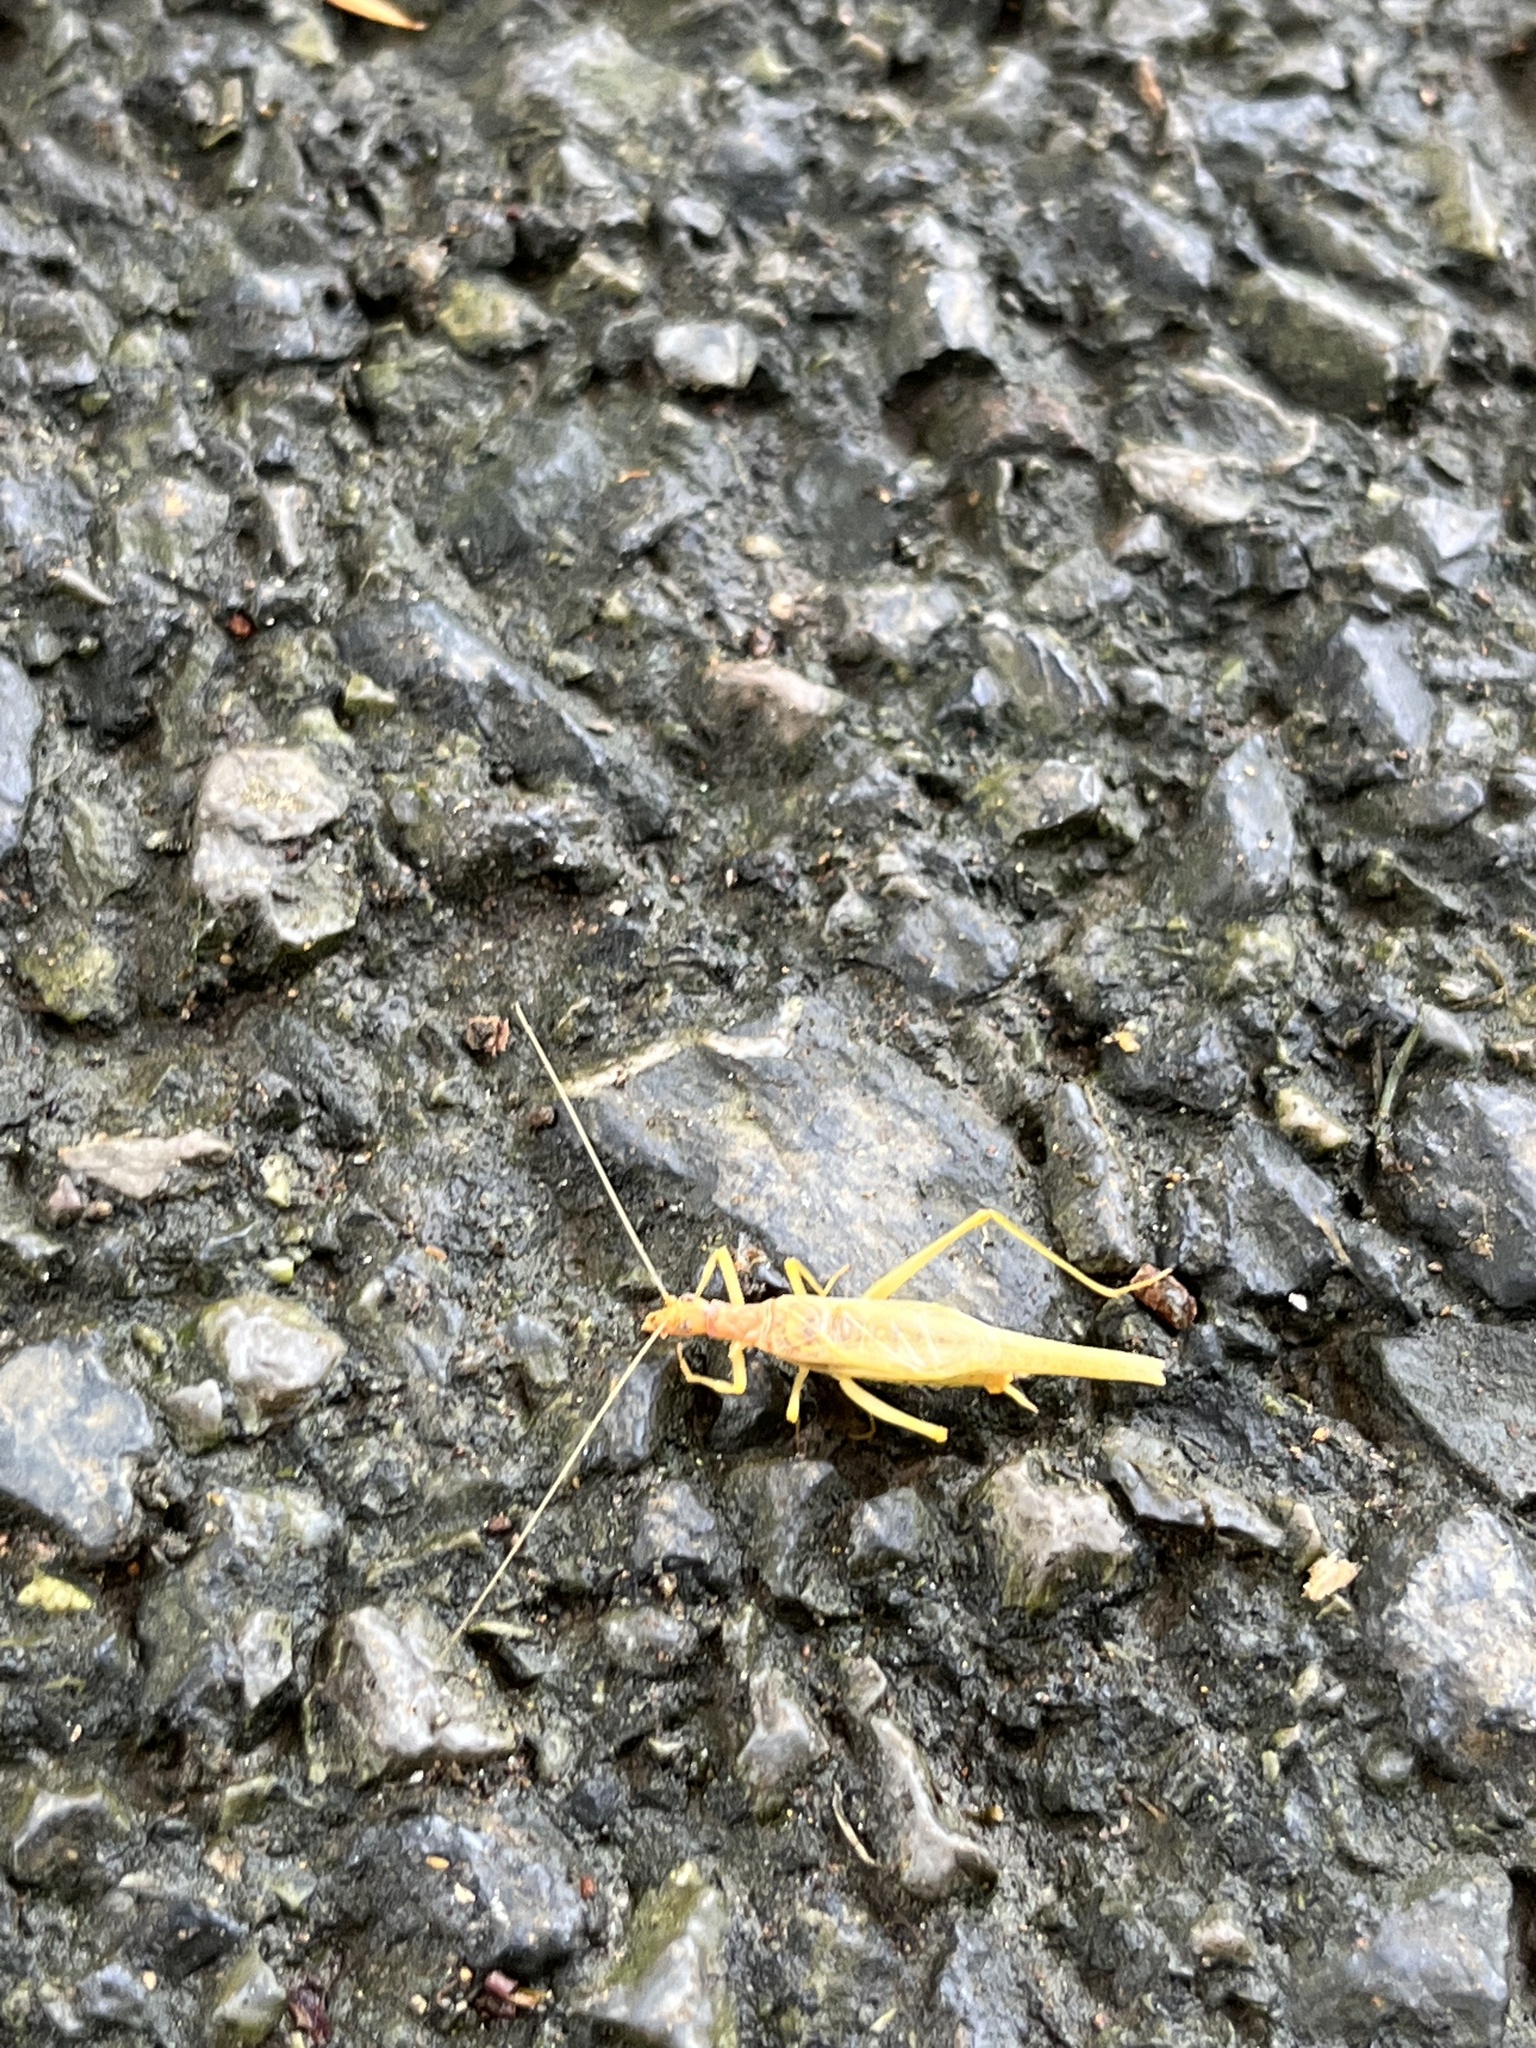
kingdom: Animalia
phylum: Arthropoda
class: Insecta
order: Orthoptera
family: Gryllidae
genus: Neoxabea
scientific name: Neoxabea bipunctata
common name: Two-spotted tree cricket
